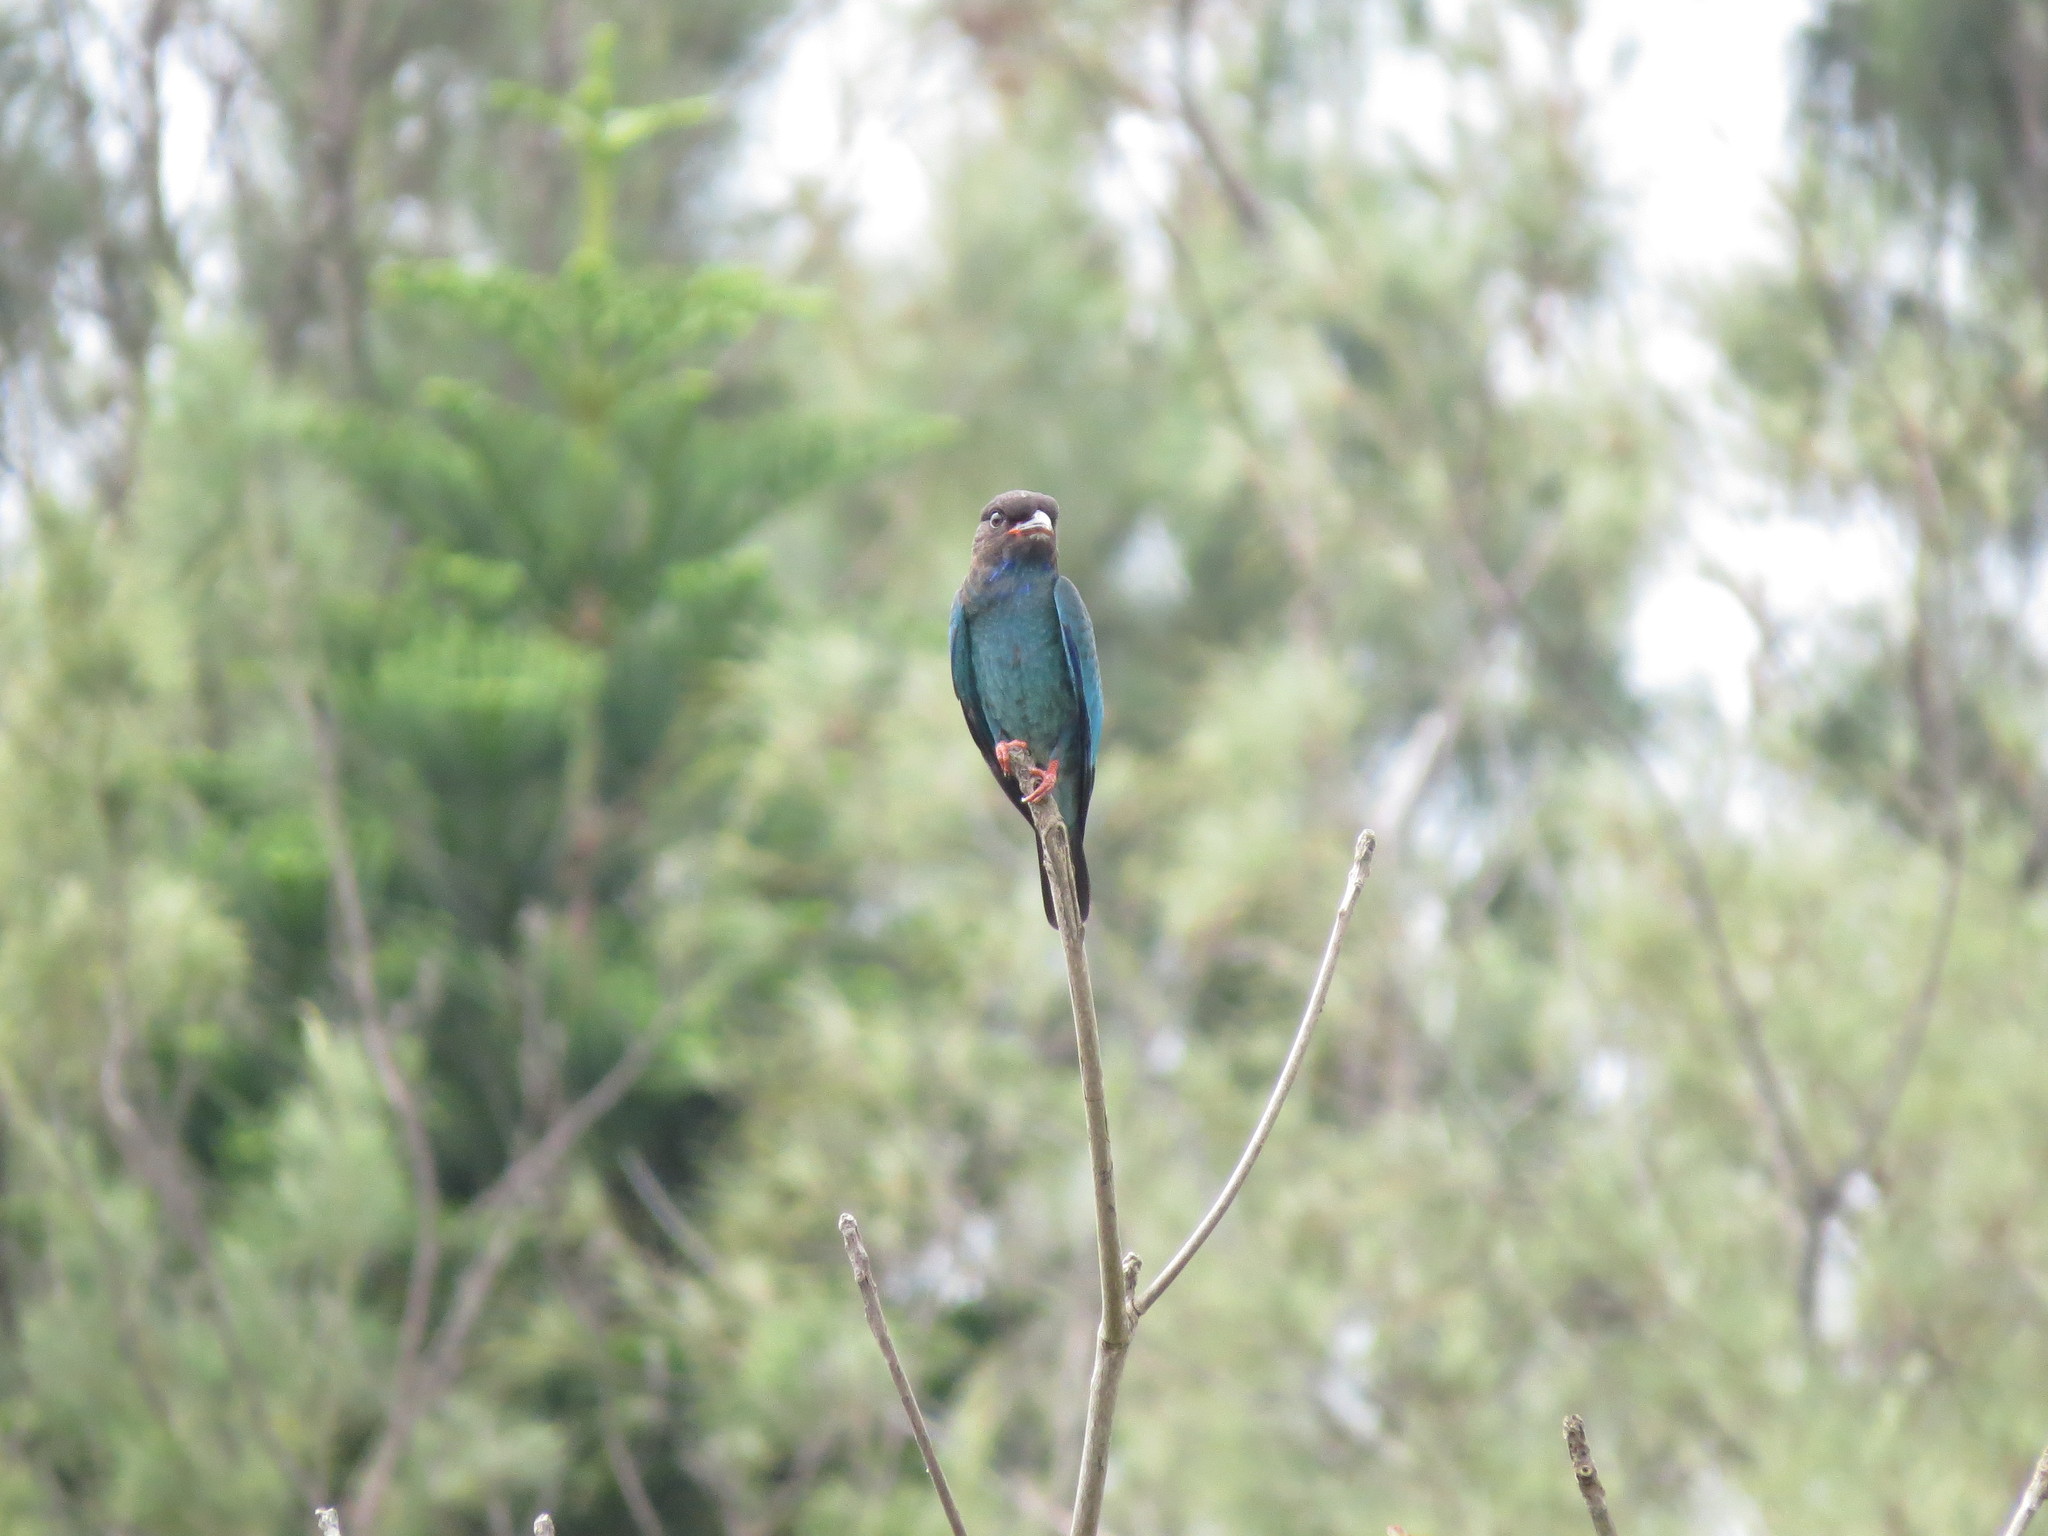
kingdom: Animalia
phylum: Chordata
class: Aves
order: Coraciiformes
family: Coraciidae
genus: Eurystomus
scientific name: Eurystomus orientalis
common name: Oriental dollarbird
